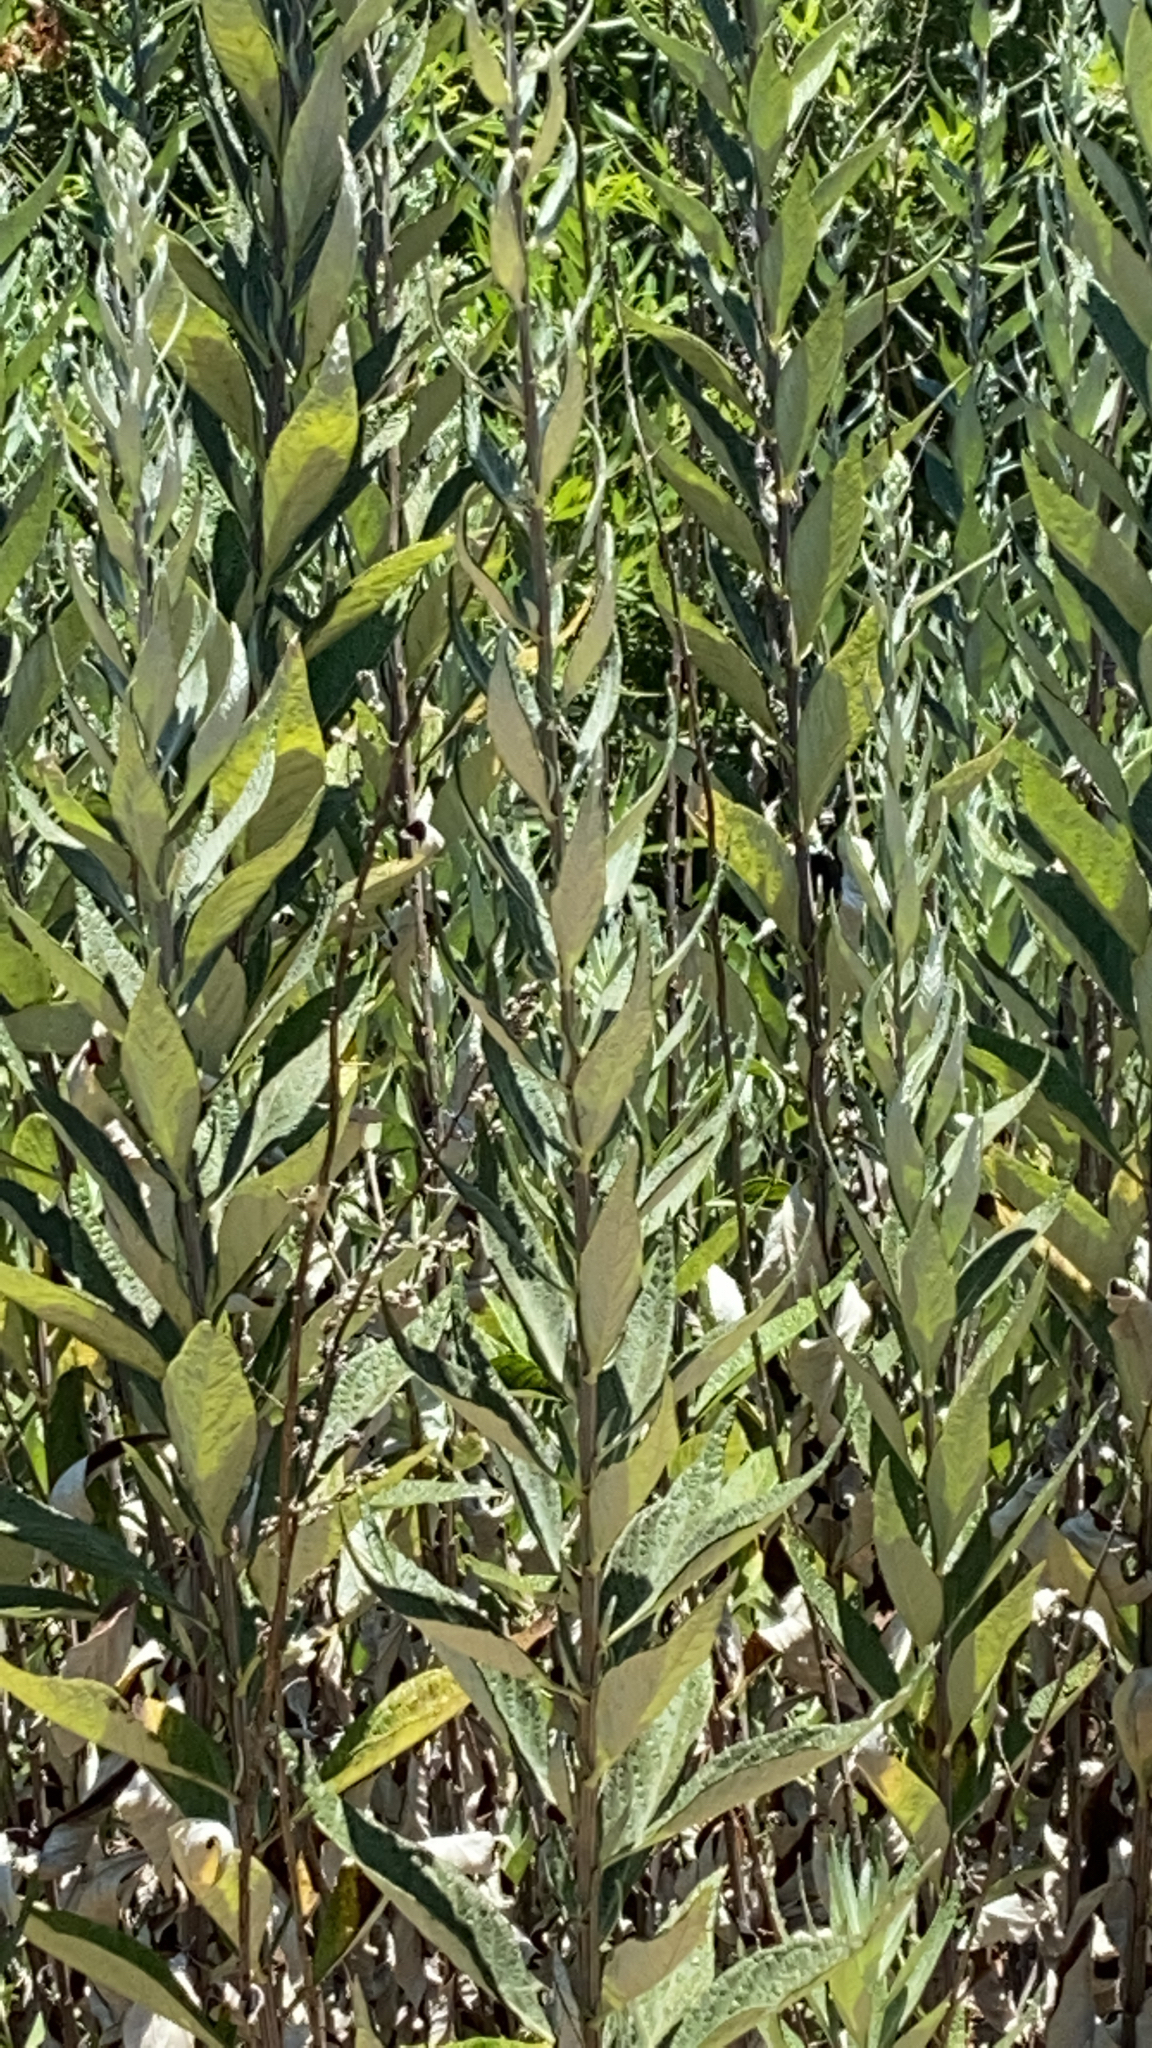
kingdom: Plantae
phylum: Tracheophyta
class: Magnoliopsida
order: Asterales
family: Asteraceae
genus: Artemisia
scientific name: Artemisia douglasiana
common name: Northwest mugwort
